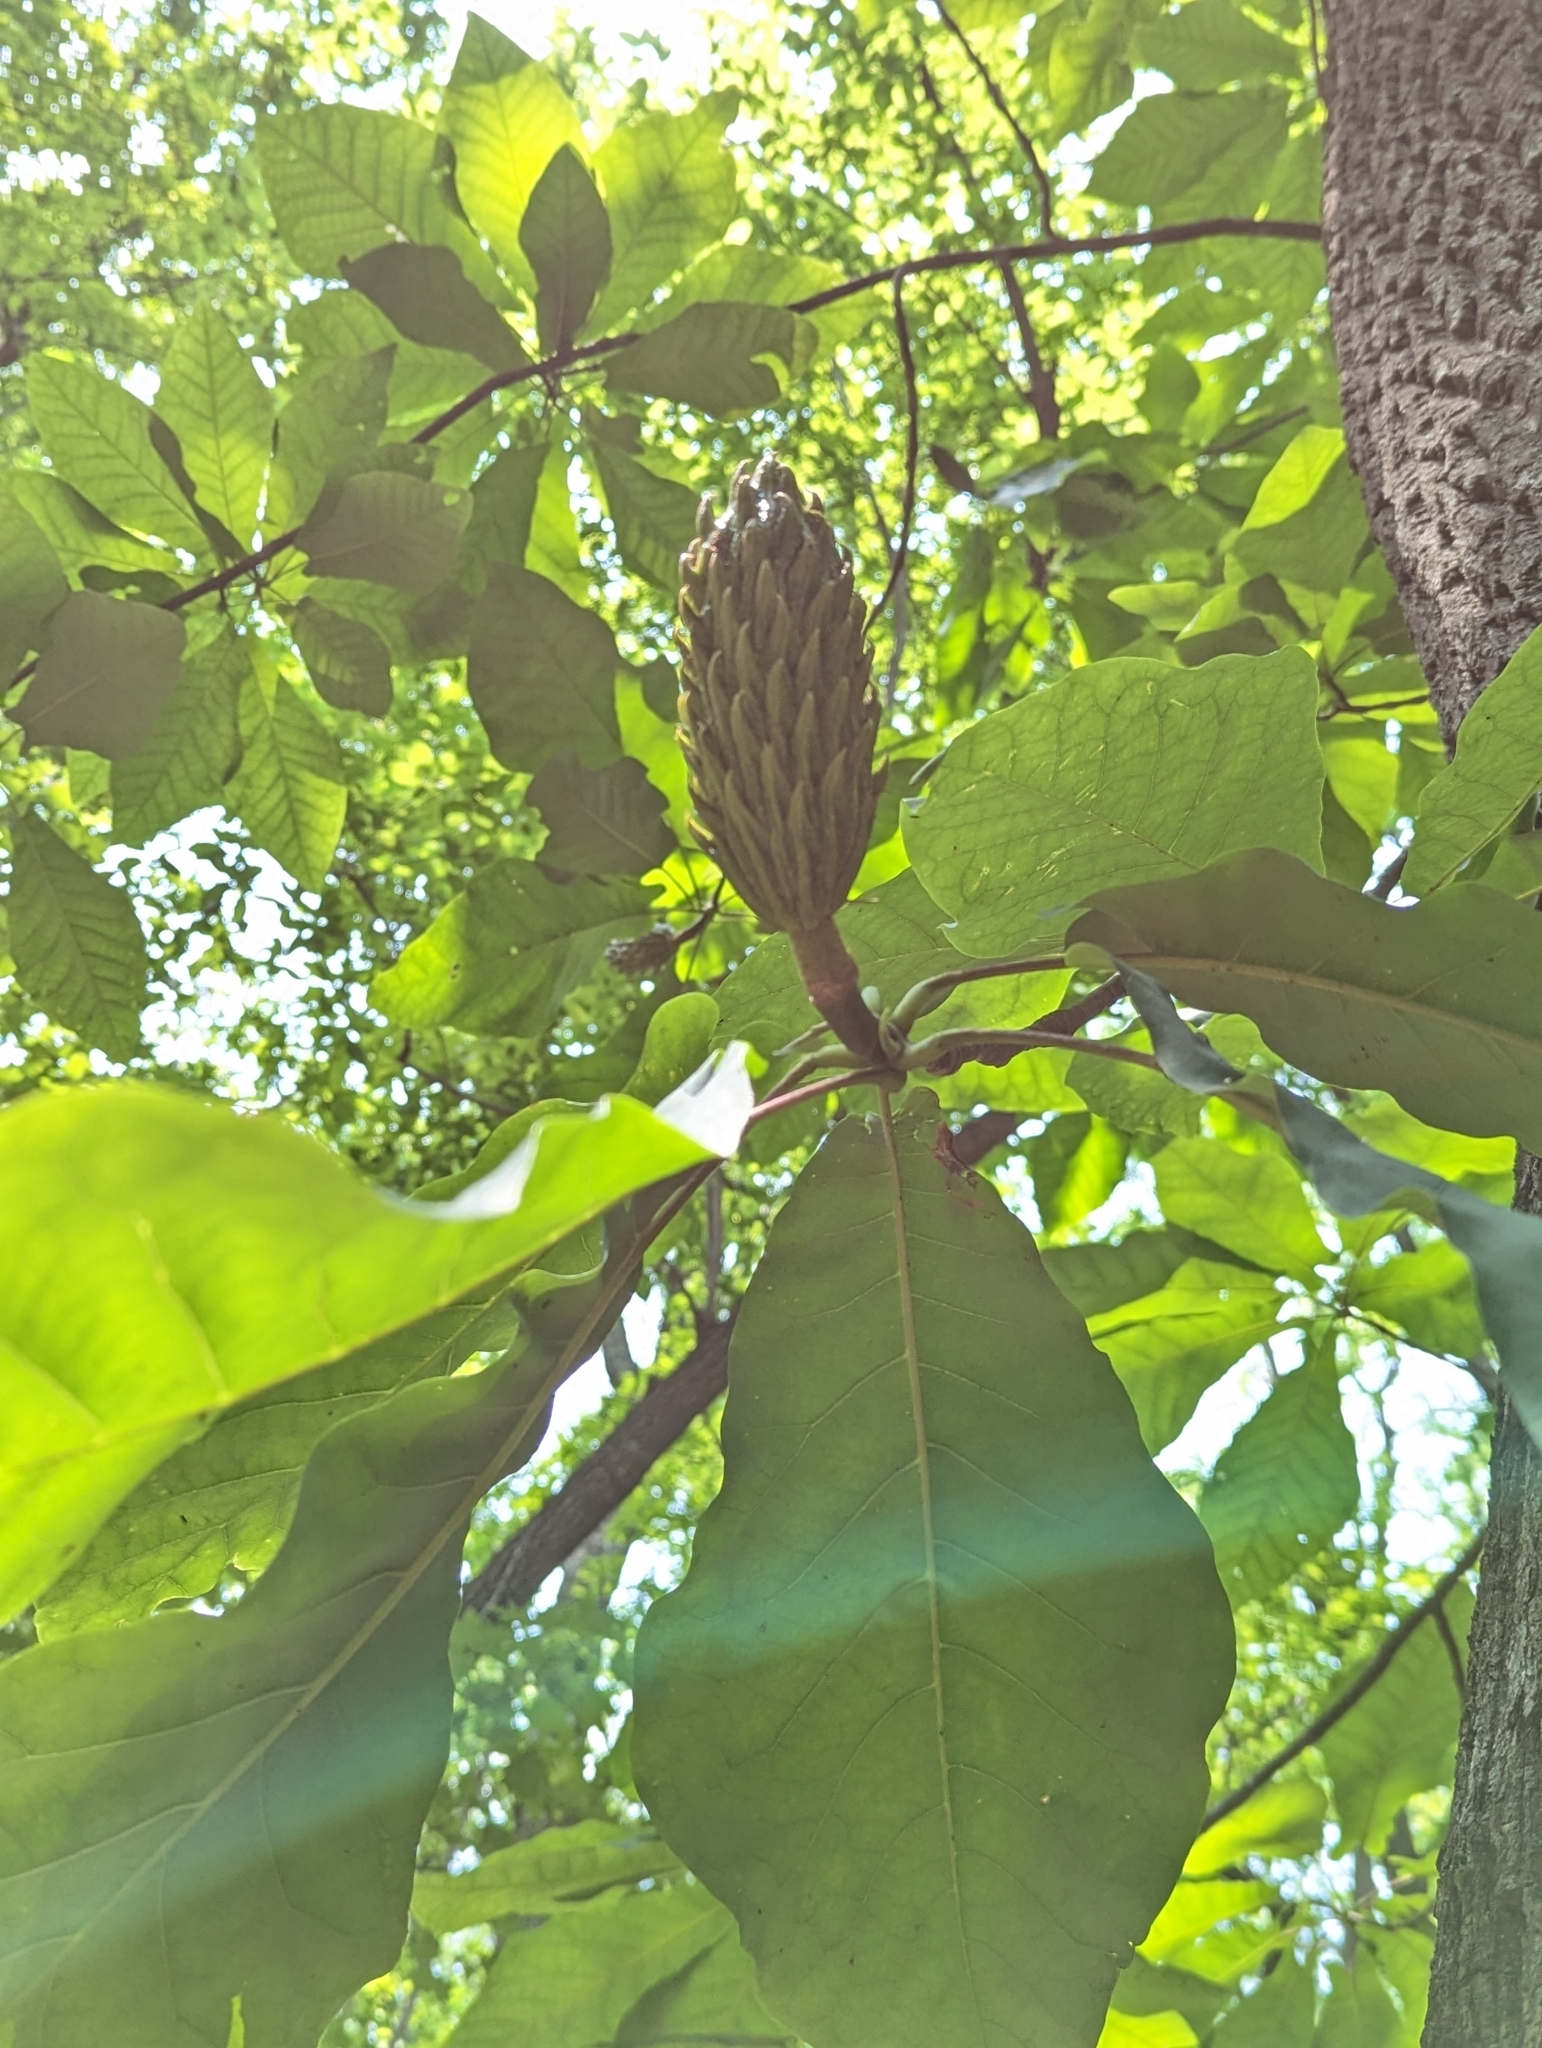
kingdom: Plantae
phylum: Tracheophyta
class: Magnoliopsida
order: Magnoliales
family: Magnoliaceae
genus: Magnolia
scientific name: Magnolia fraseri
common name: Fraser's magnolia
